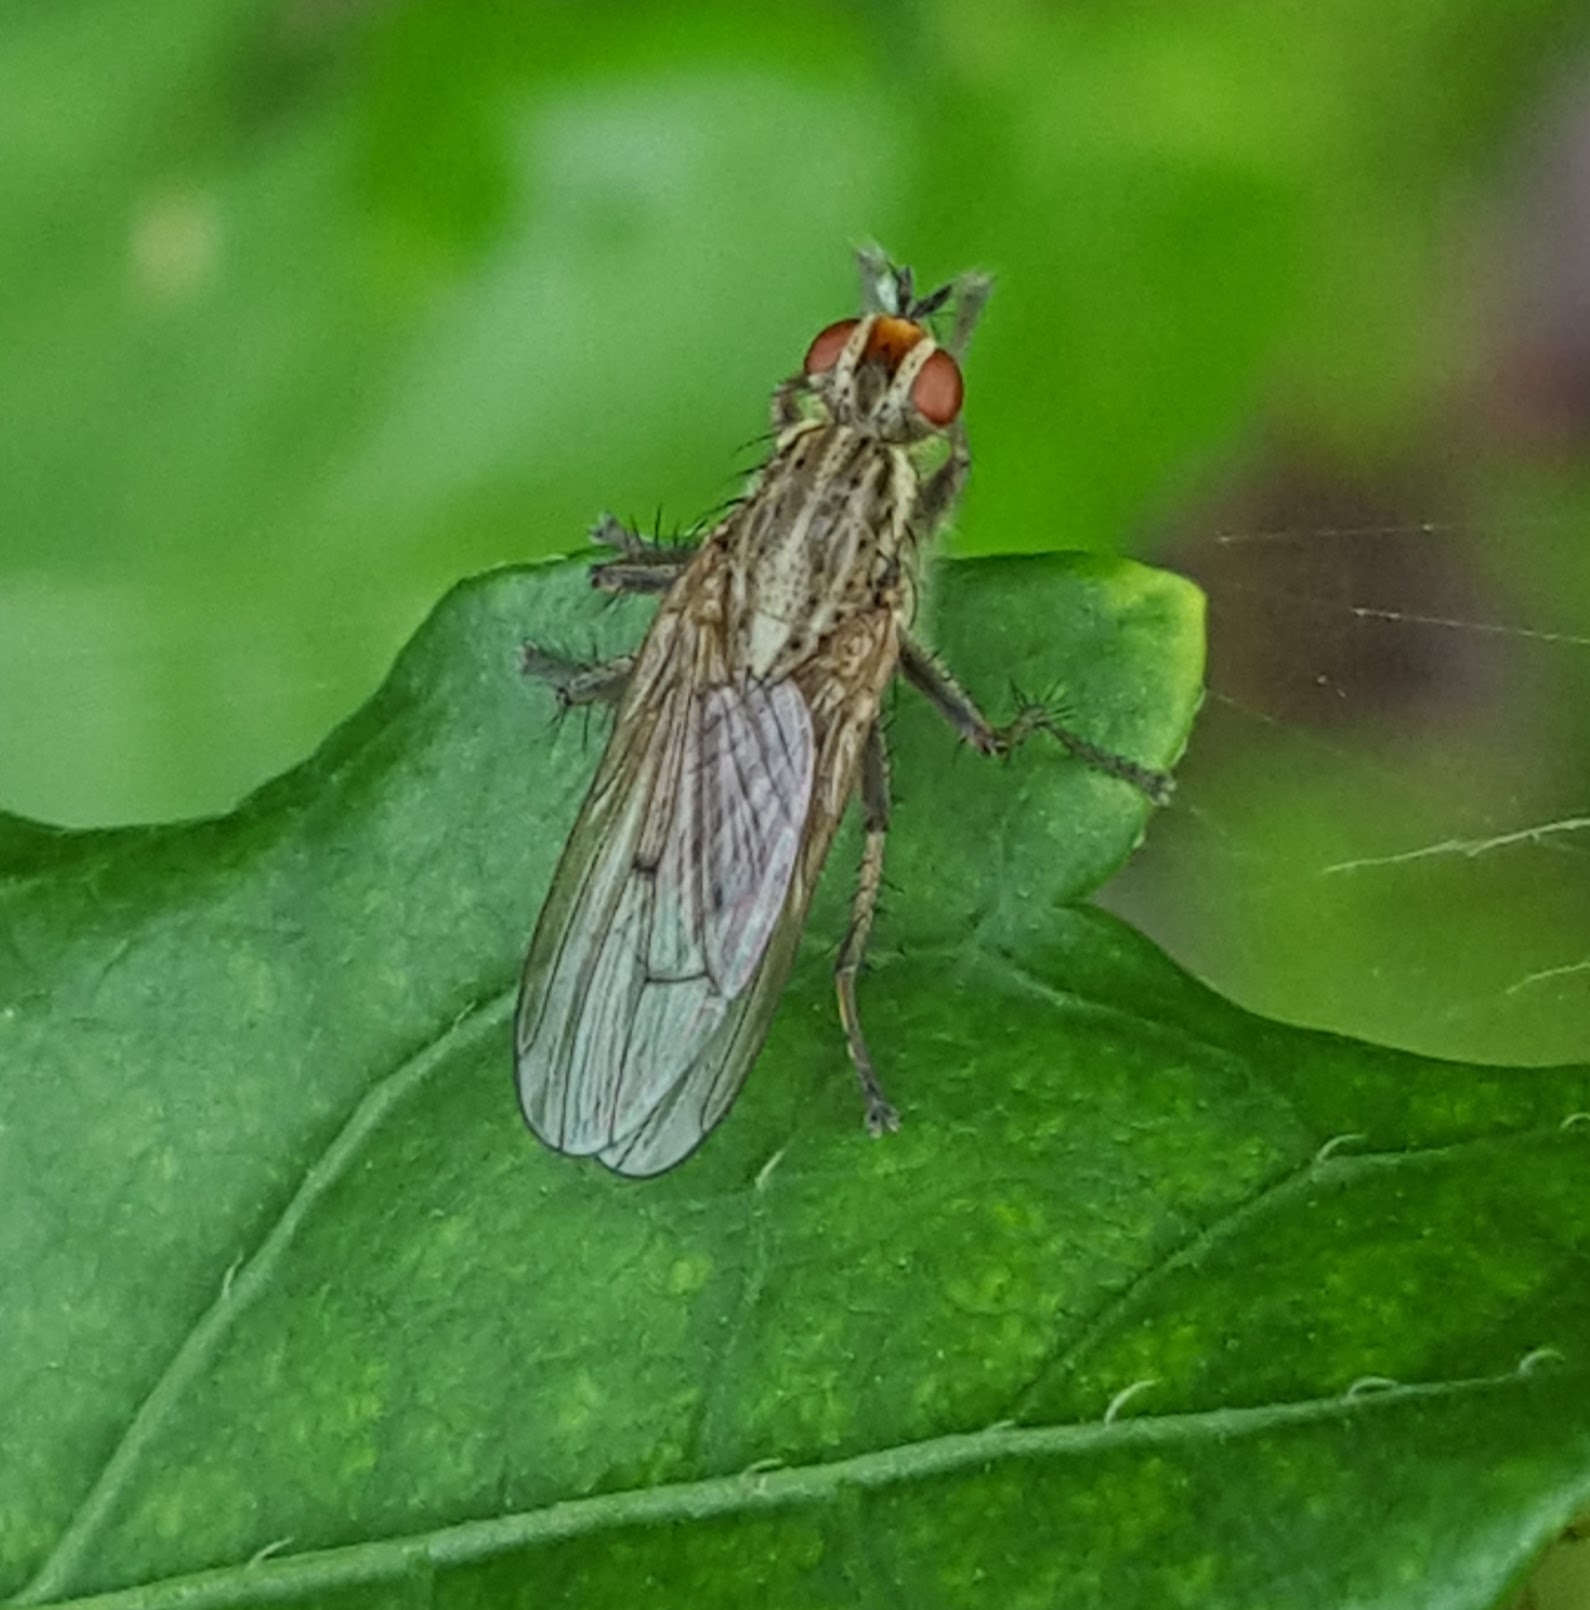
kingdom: Animalia
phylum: Arthropoda
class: Insecta
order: Diptera
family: Scathophagidae
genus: Scathophaga
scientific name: Scathophaga stercoraria
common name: Yellow dung fly
